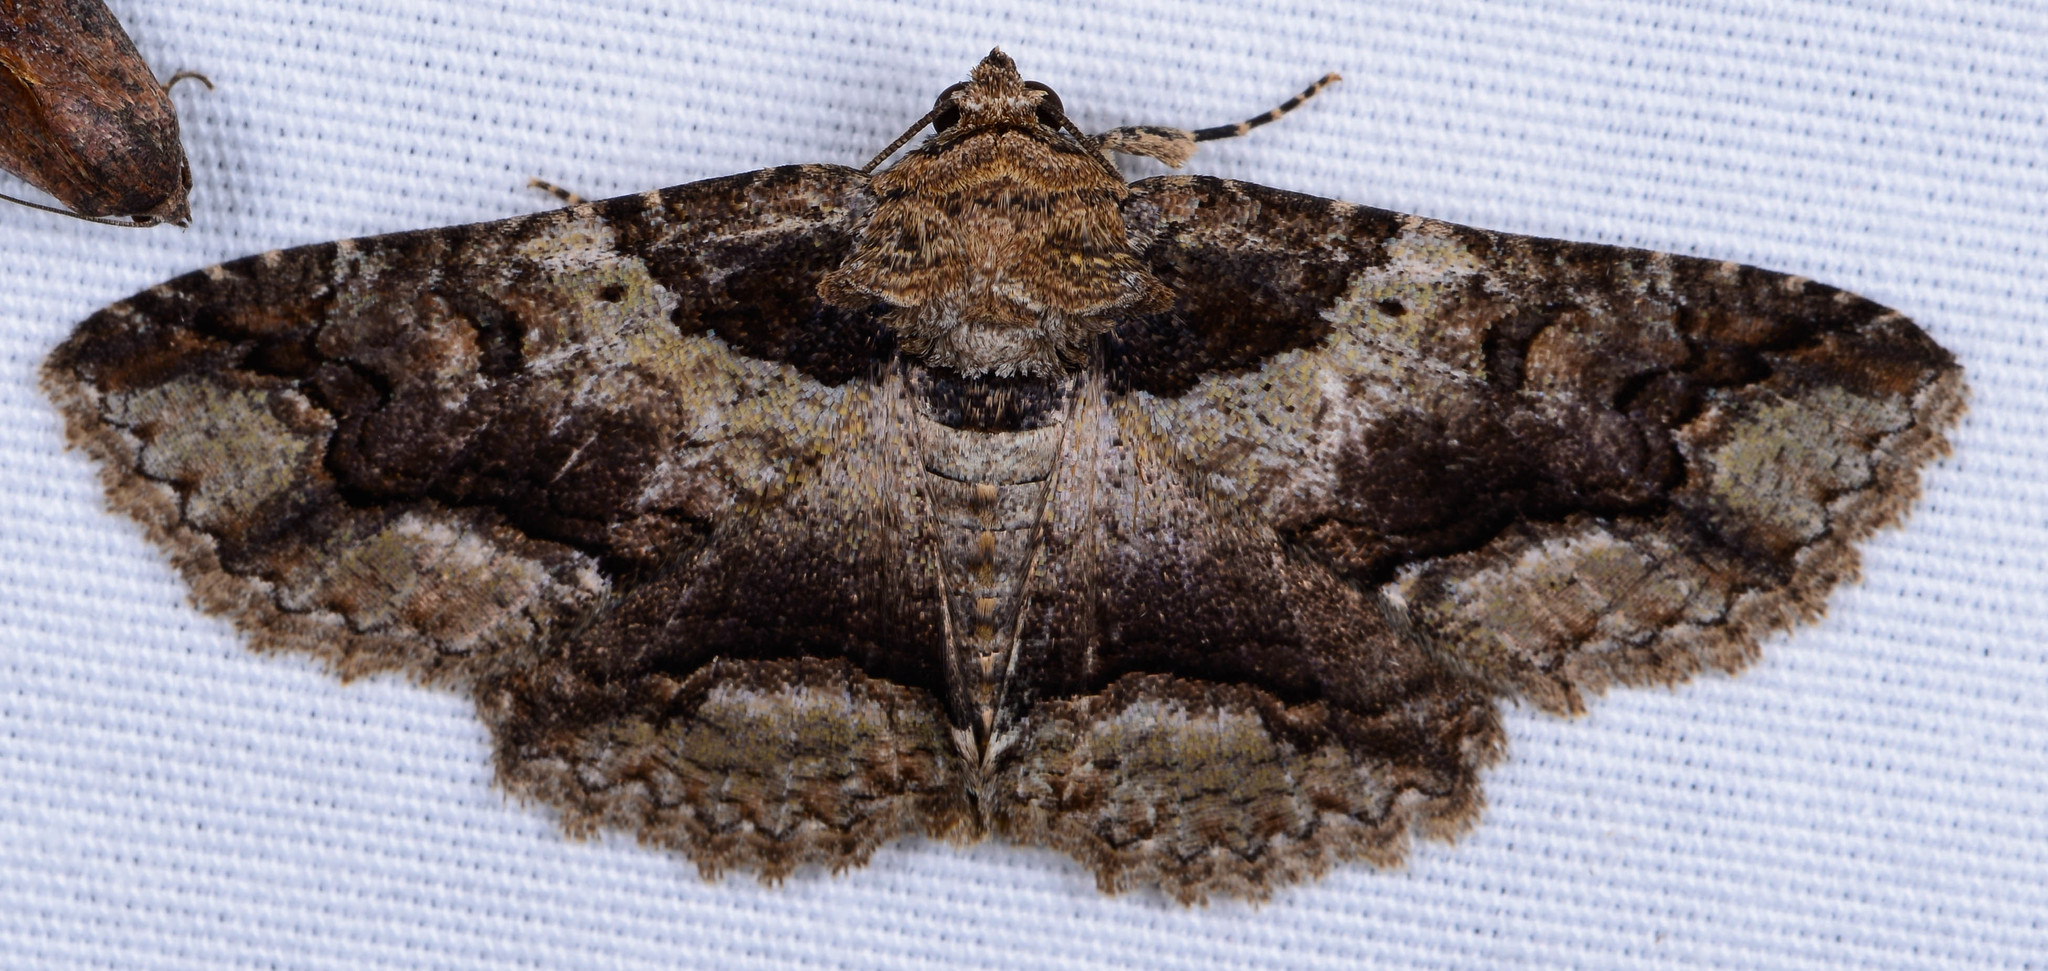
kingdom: Animalia
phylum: Arthropoda
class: Insecta
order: Lepidoptera
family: Erebidae
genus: Zale
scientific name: Zale galbanata
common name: Maple zale
